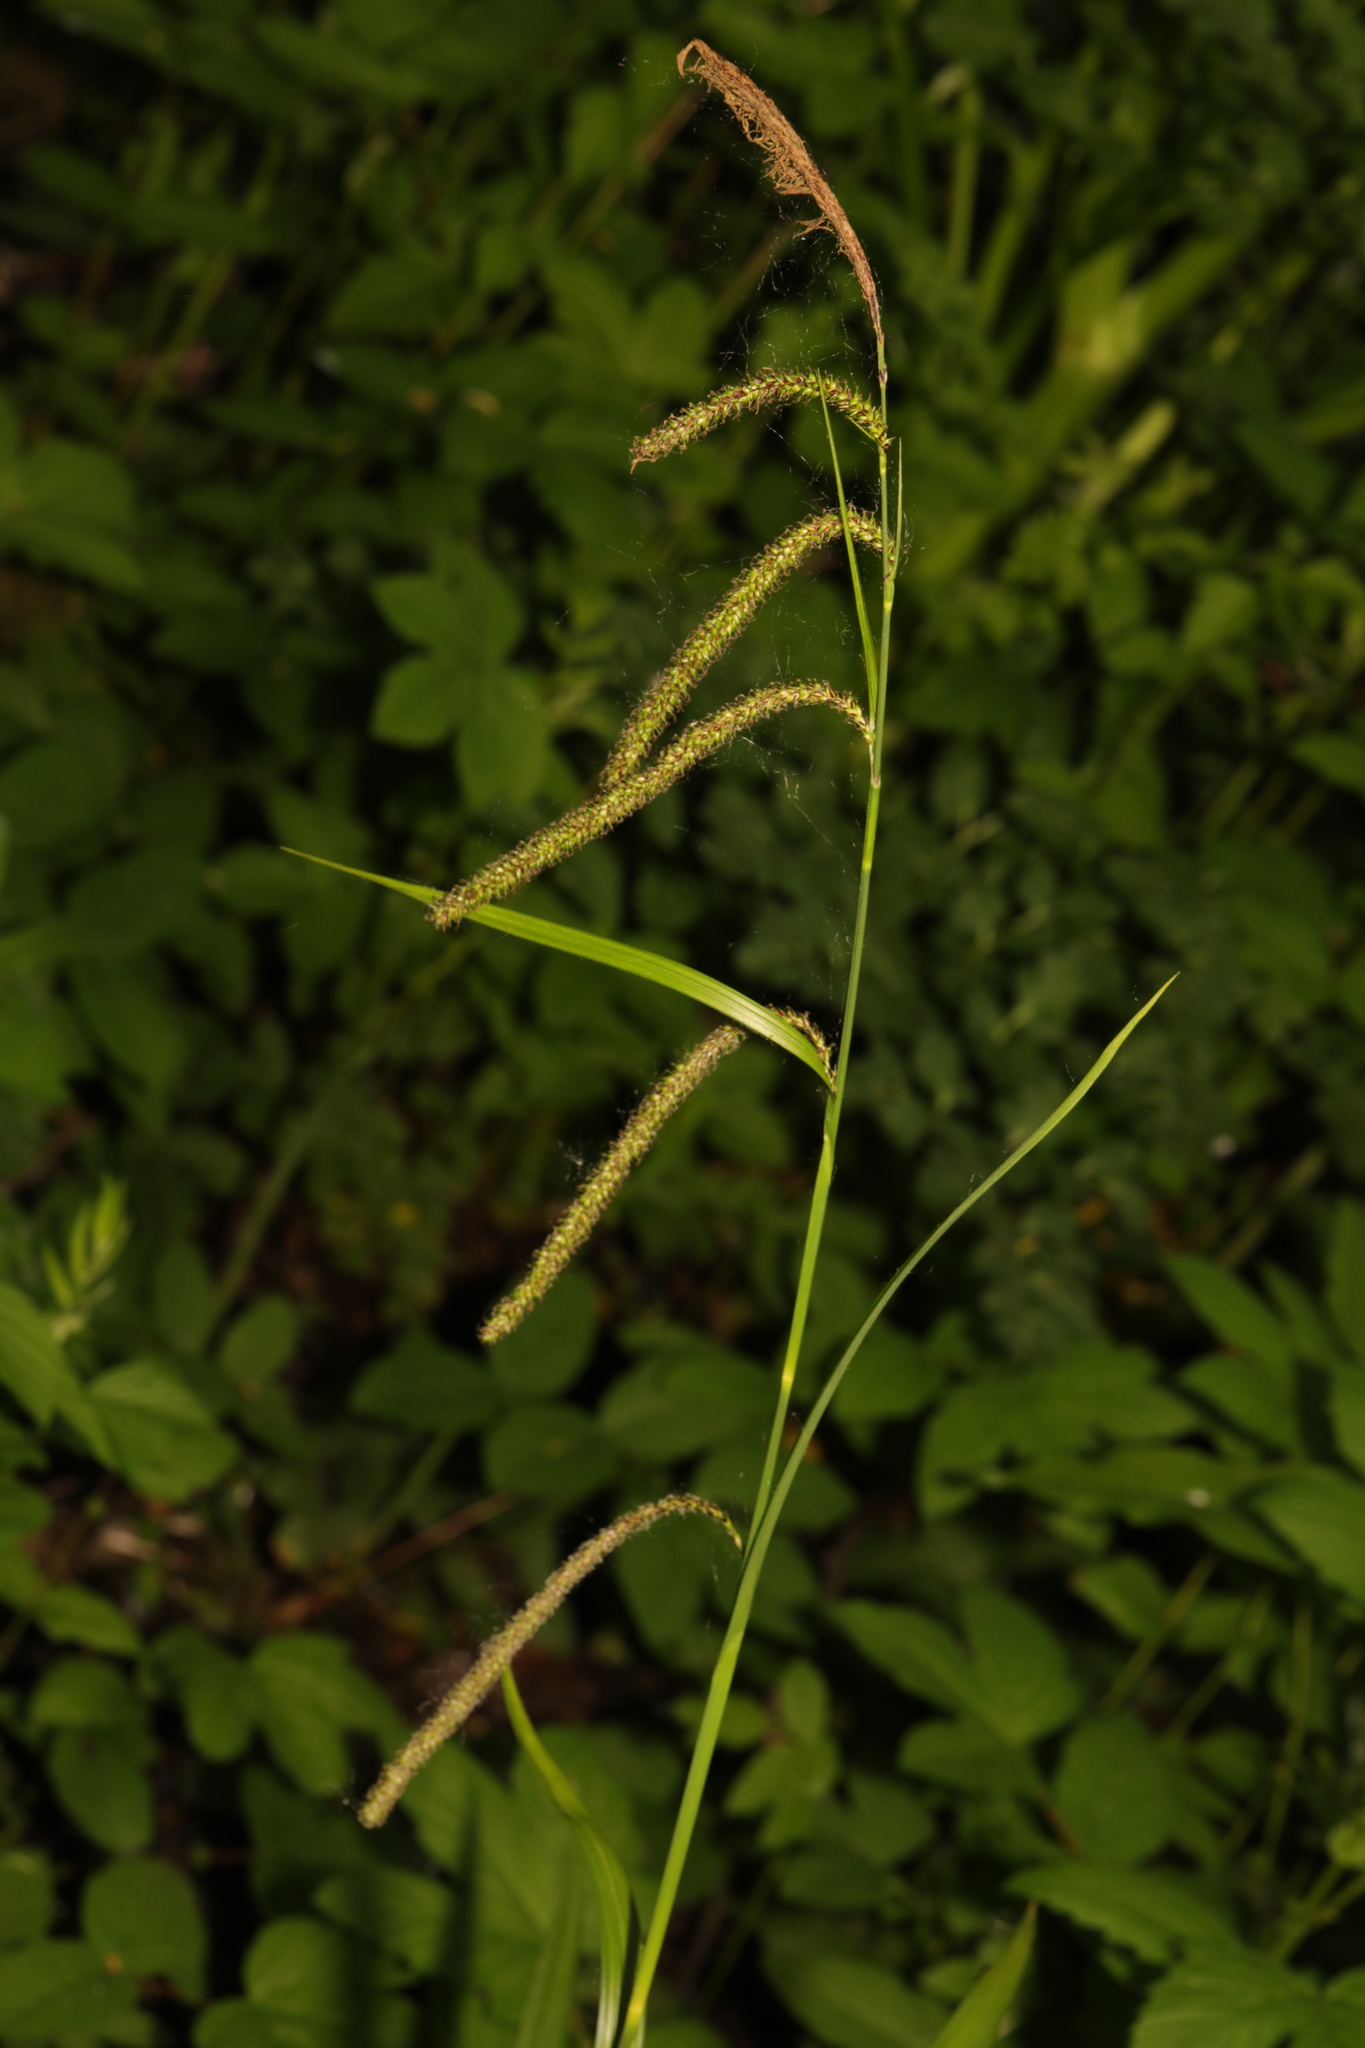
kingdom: Plantae
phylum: Tracheophyta
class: Liliopsida
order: Poales
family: Cyperaceae
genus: Carex
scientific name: Carex pendula
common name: Pendulous sedge
